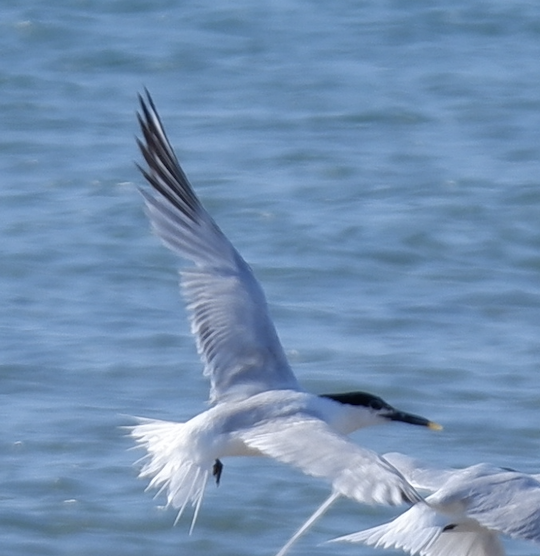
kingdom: Animalia
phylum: Chordata
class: Aves
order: Charadriiformes
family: Laridae
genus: Thalasseus
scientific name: Thalasseus acuflavidus
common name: Cabot's tern
